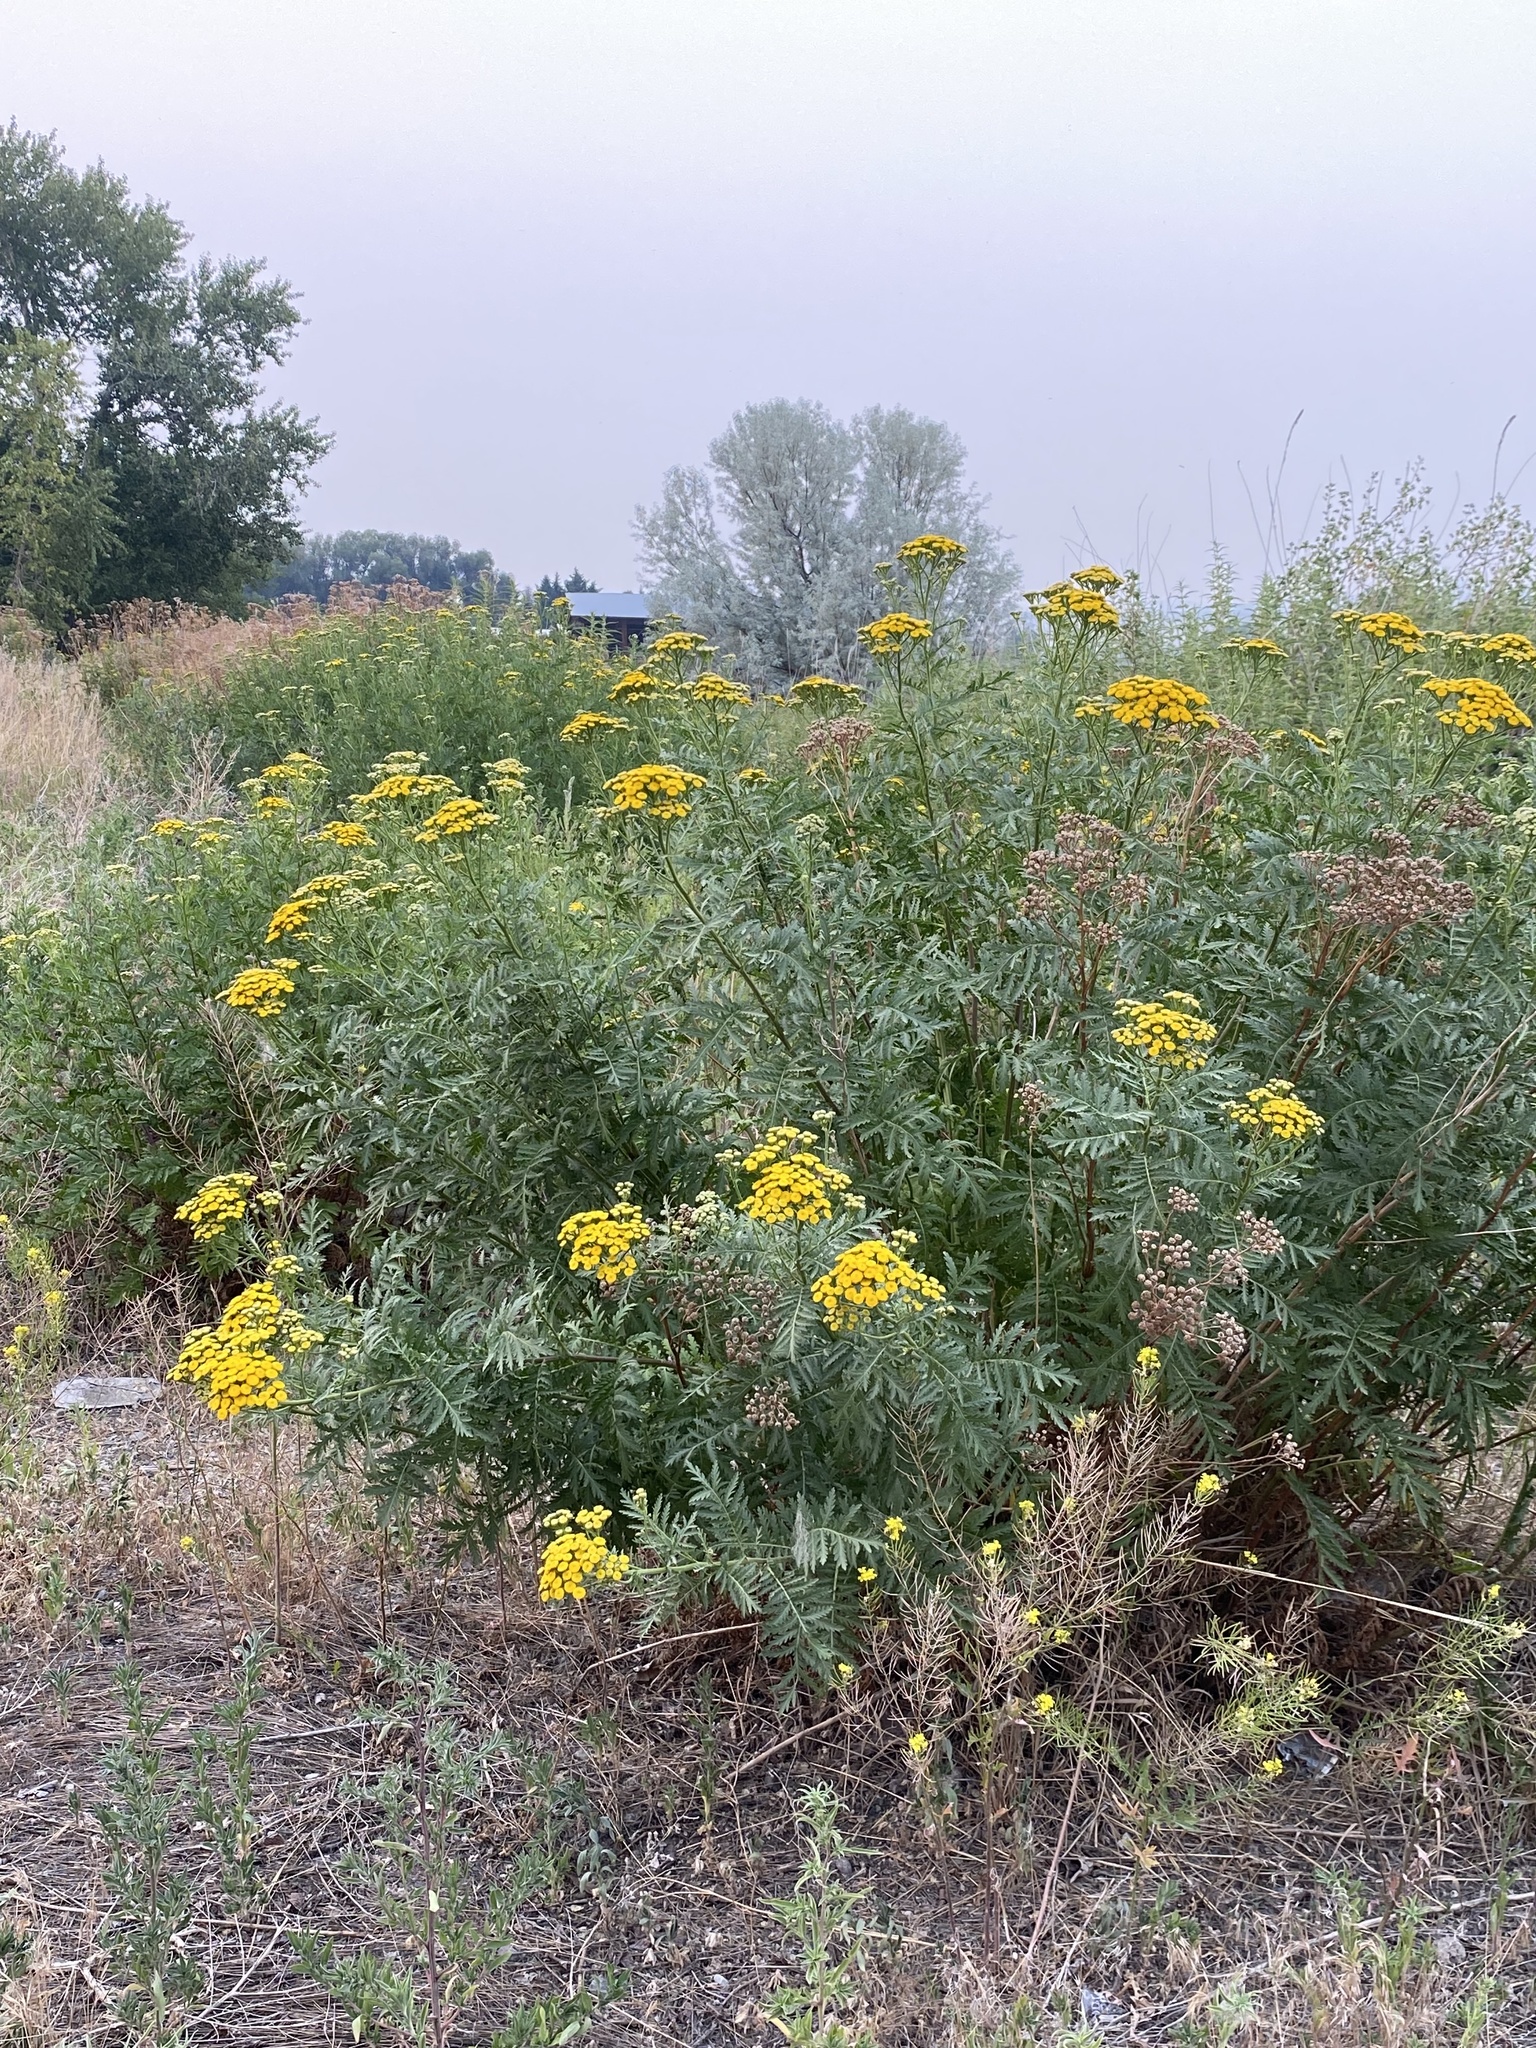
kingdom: Plantae
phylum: Tracheophyta
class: Magnoliopsida
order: Asterales
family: Asteraceae
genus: Tanacetum
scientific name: Tanacetum vulgare
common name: Common tansy
